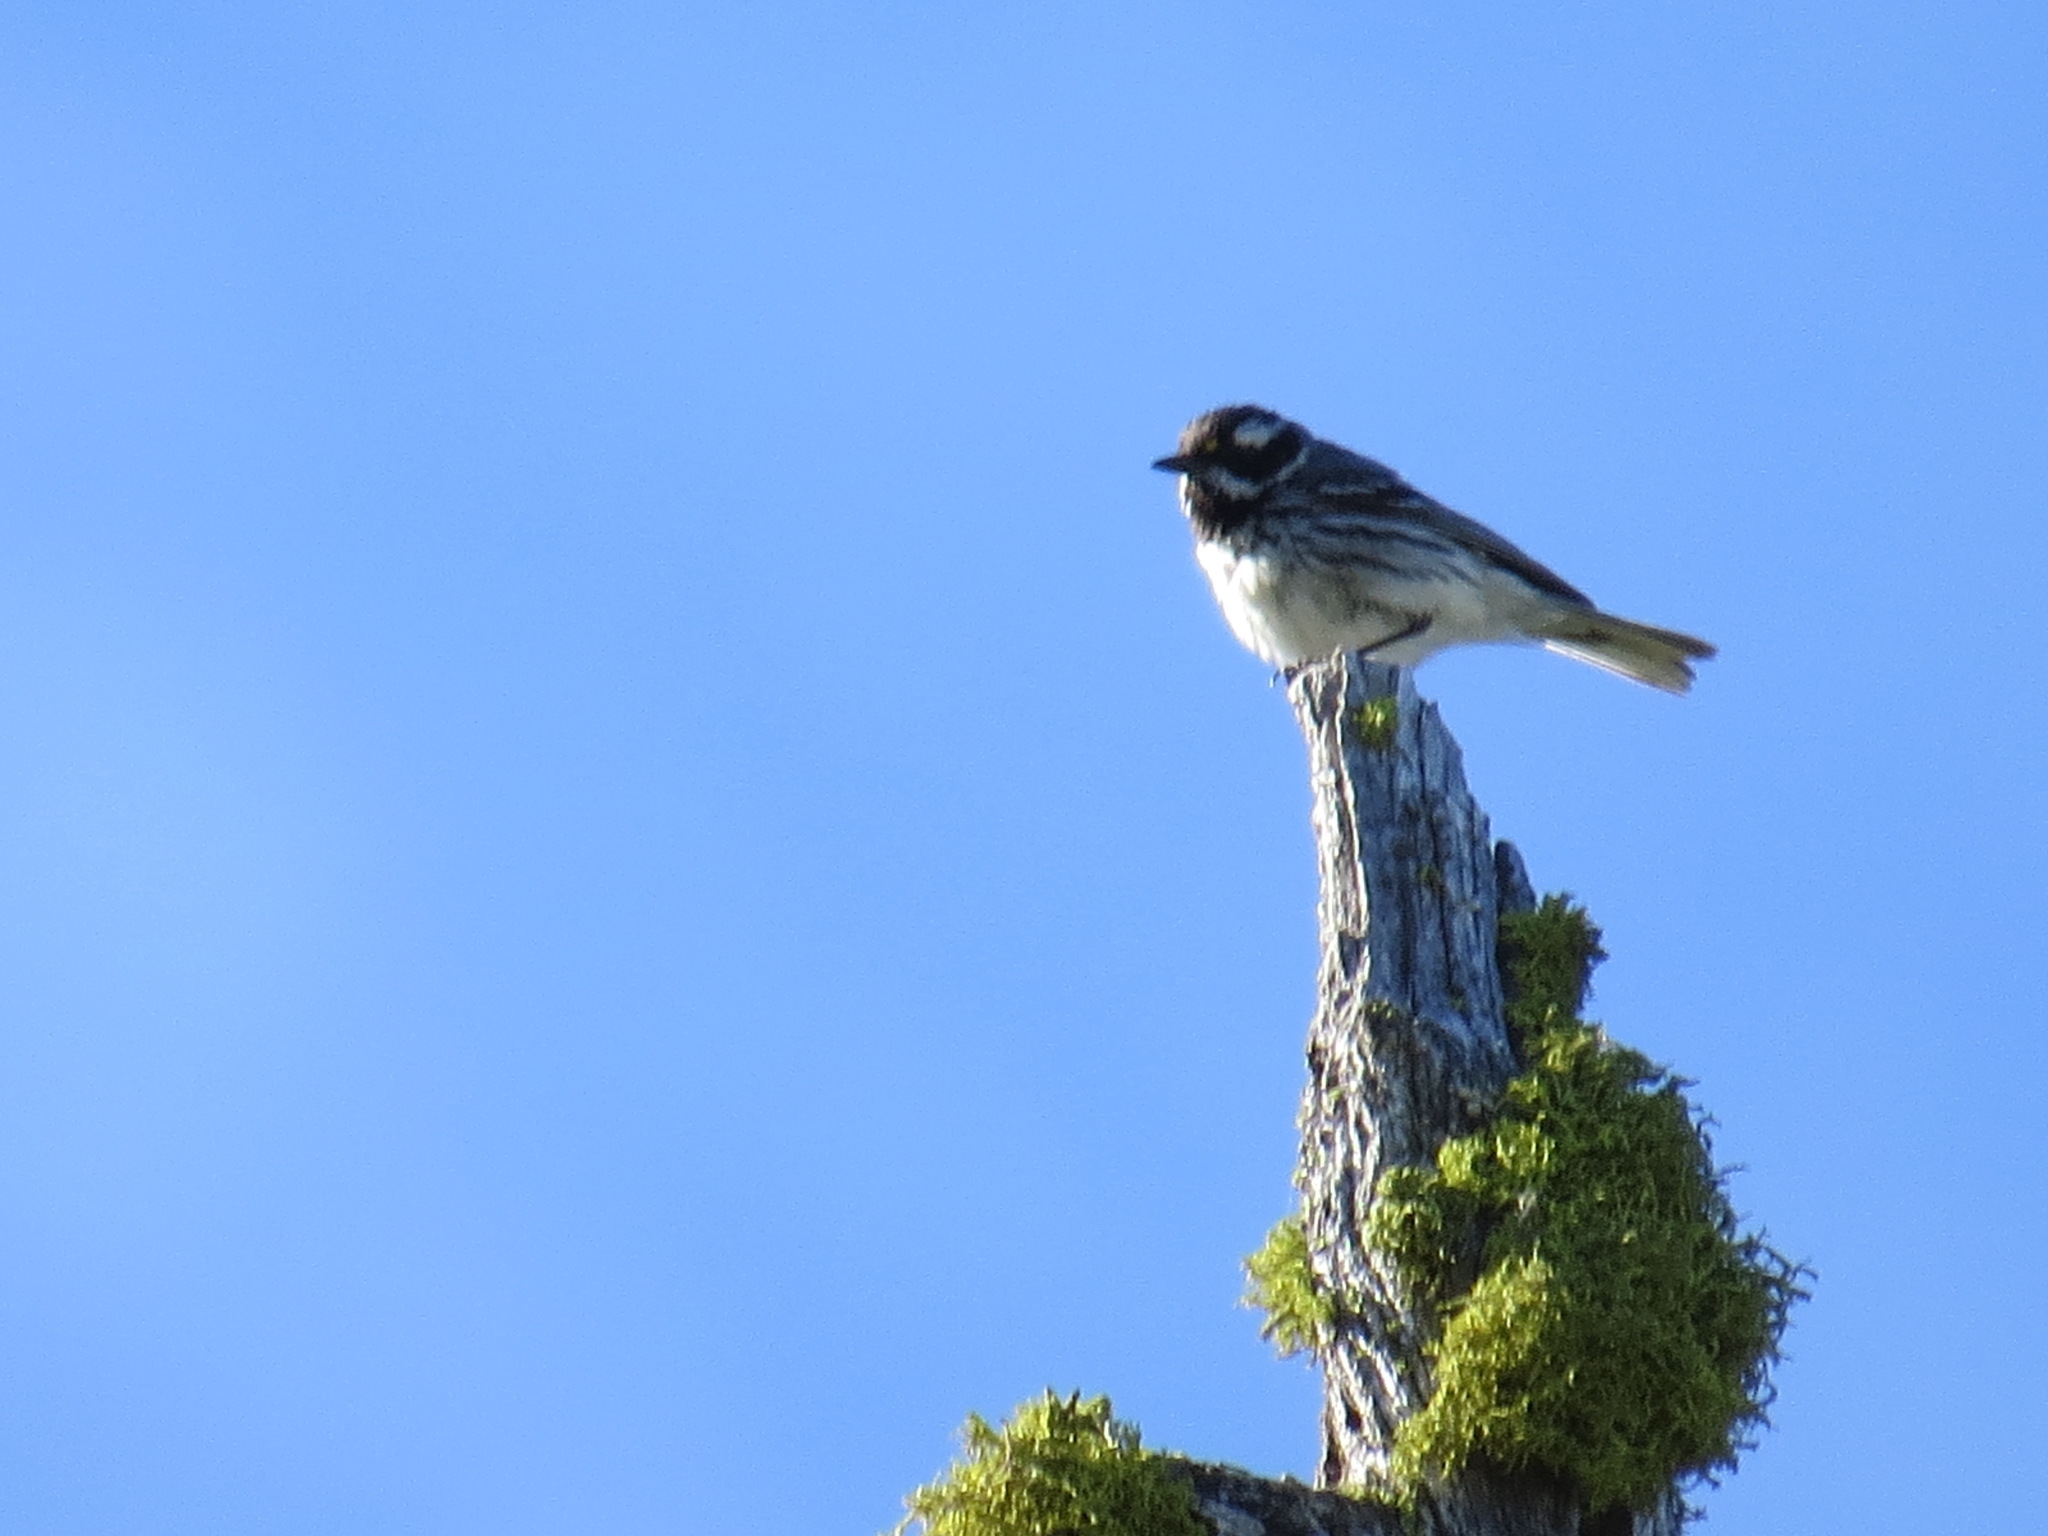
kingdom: Animalia
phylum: Chordata
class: Aves
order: Passeriformes
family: Parulidae
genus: Setophaga
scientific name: Setophaga nigrescens
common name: Black-throated gray warbler
